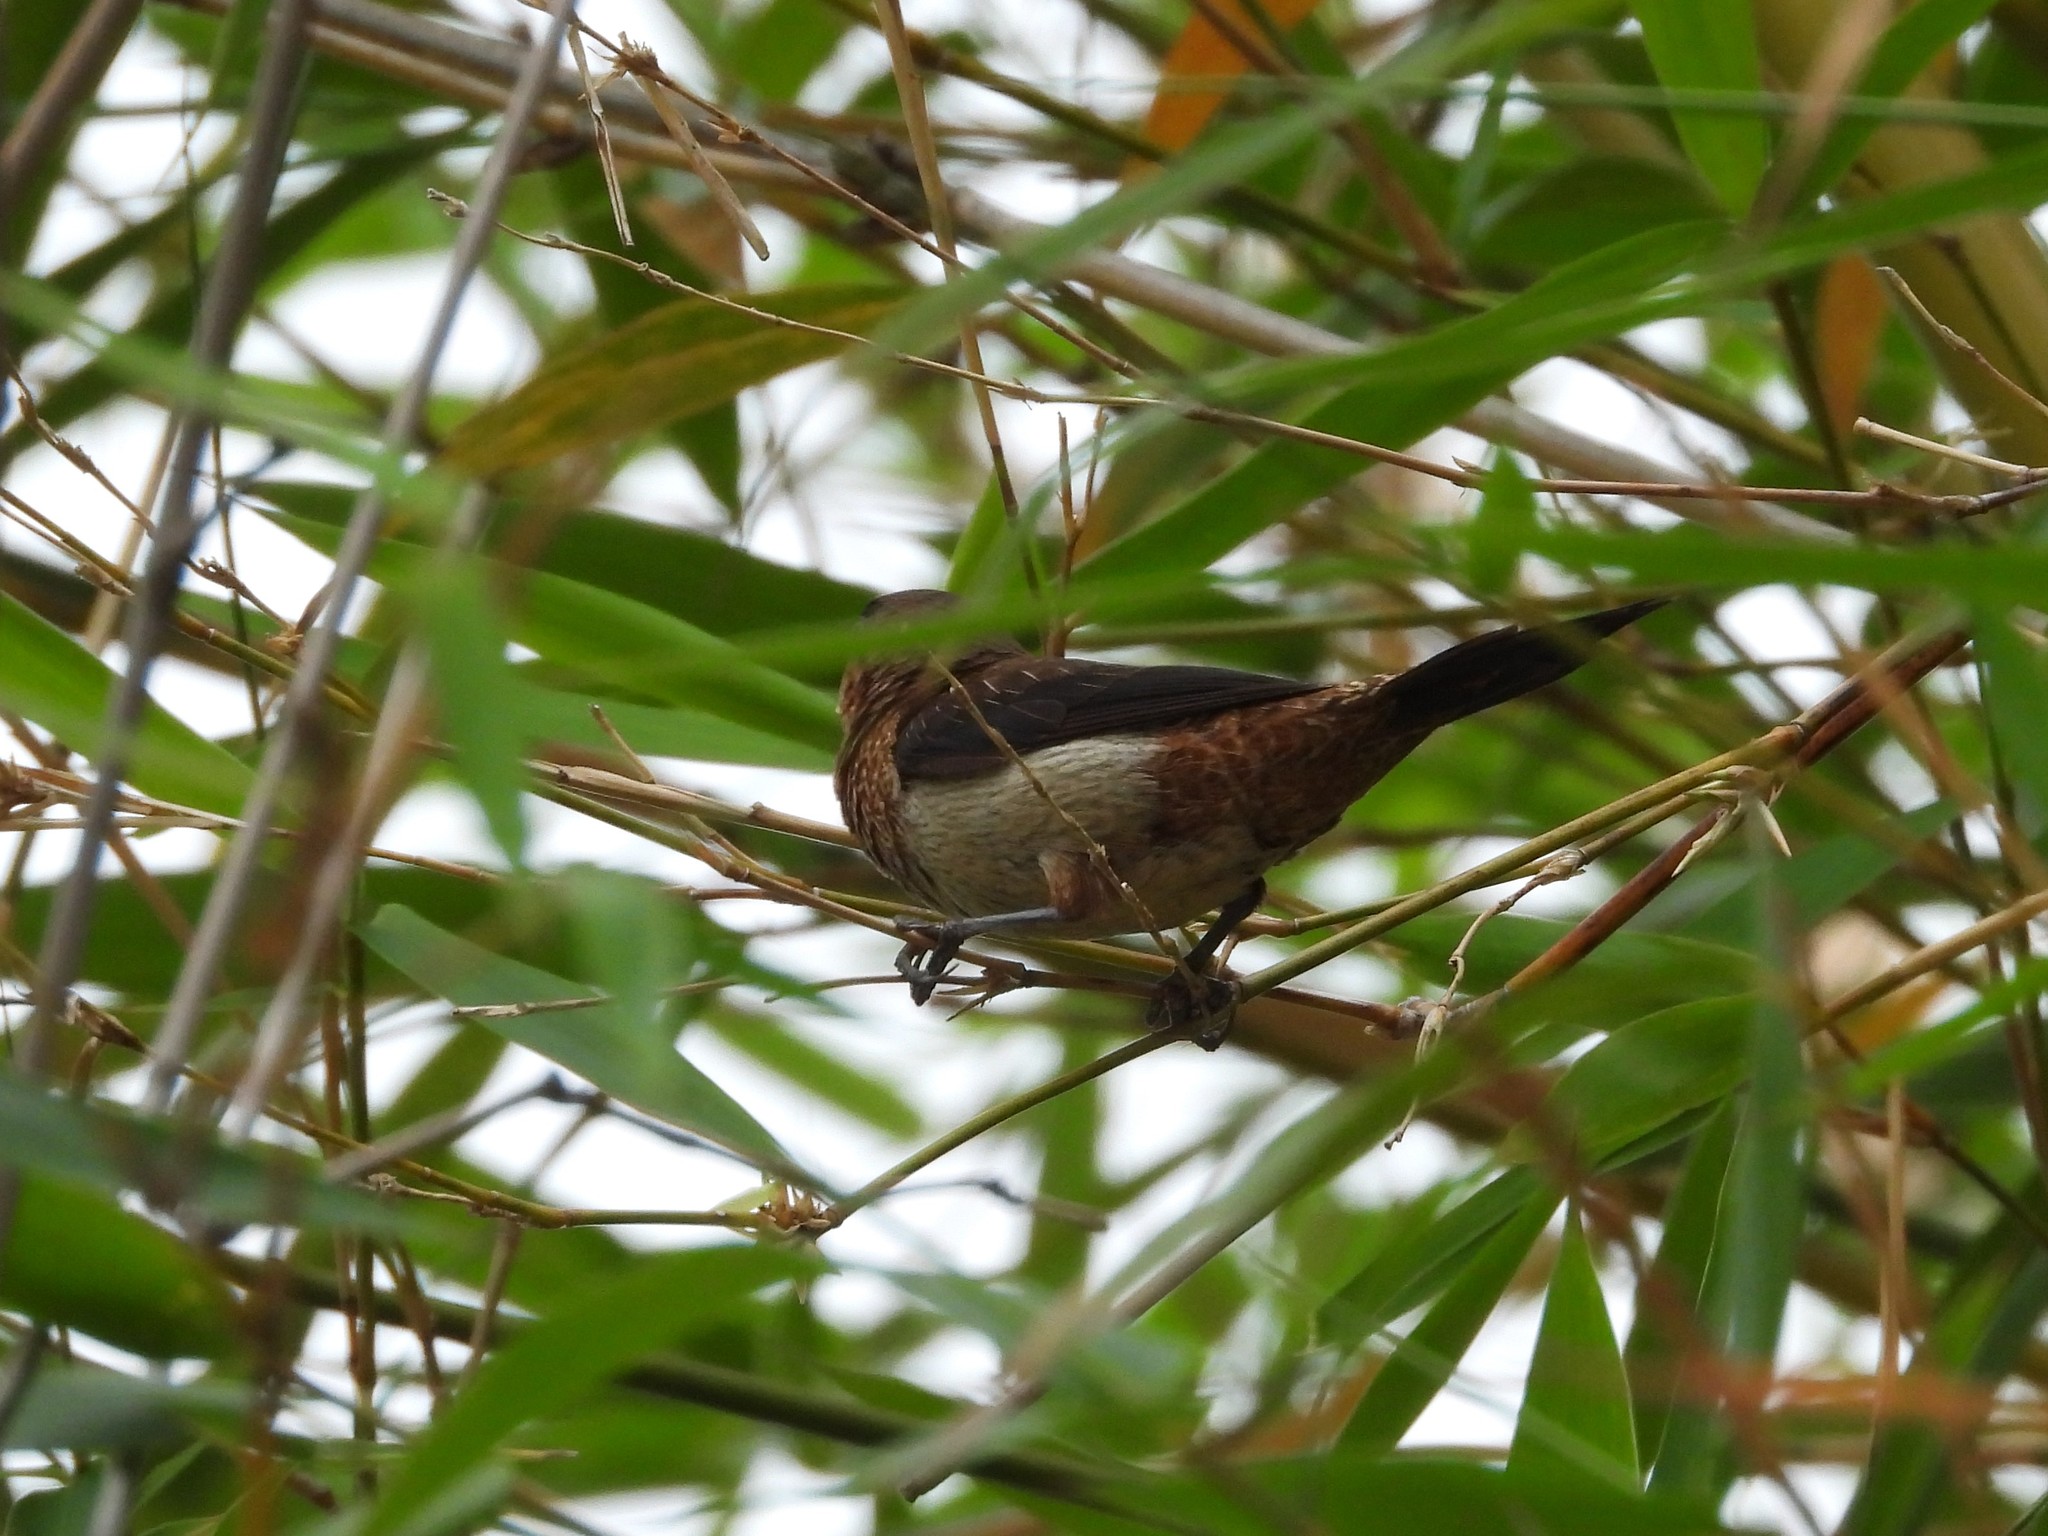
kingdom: Animalia
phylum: Chordata
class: Aves
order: Passeriformes
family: Estrildidae
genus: Lonchura
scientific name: Lonchura striata
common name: White-rumped munia
